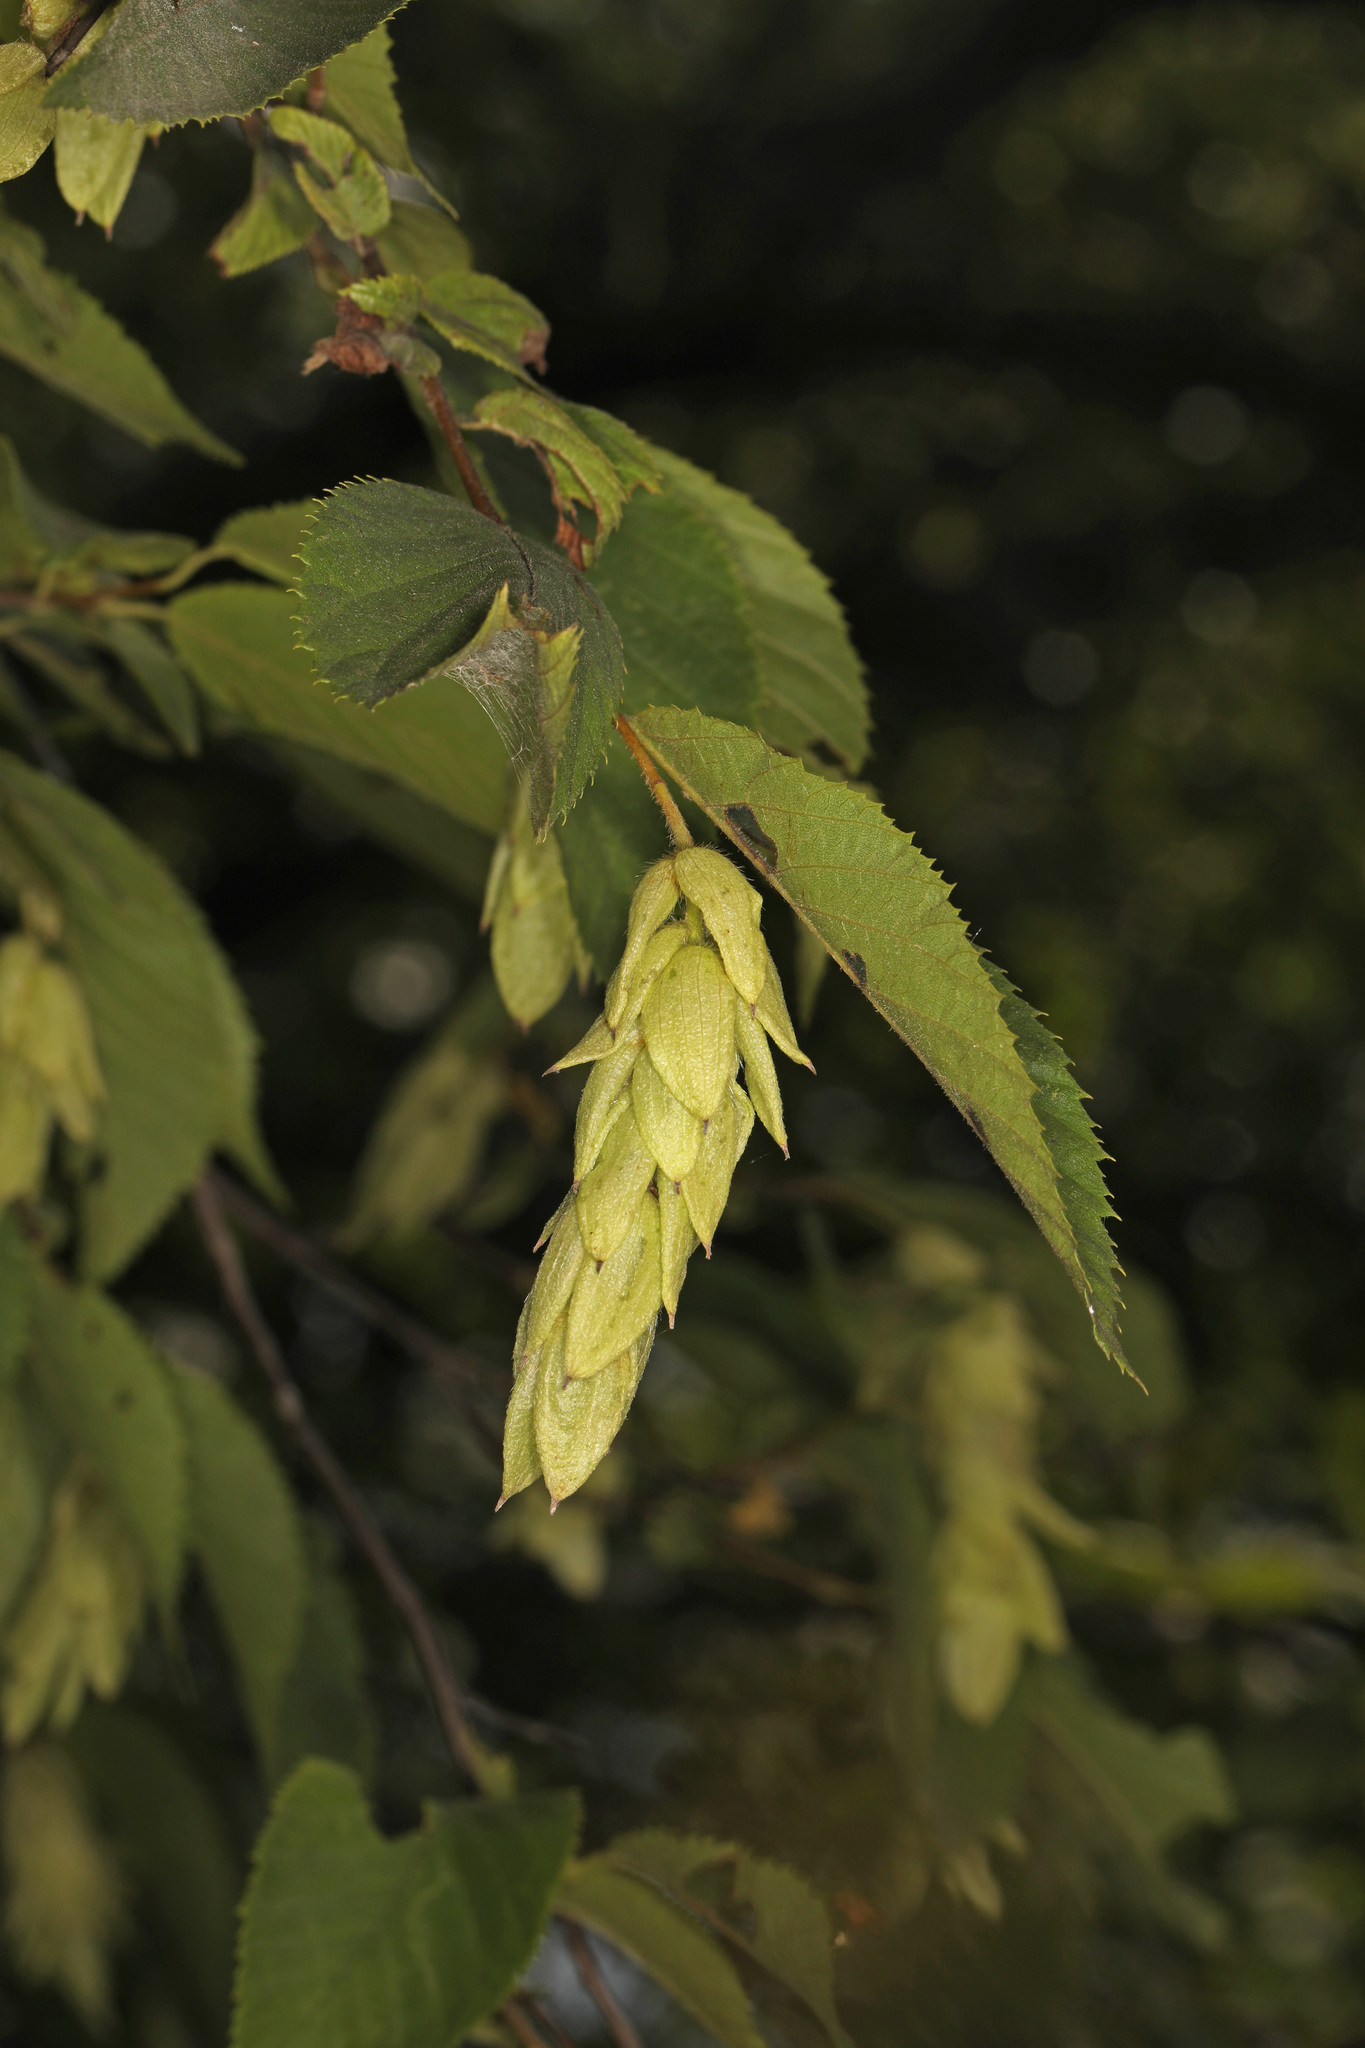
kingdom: Plantae
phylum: Tracheophyta
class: Magnoliopsida
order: Fagales
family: Betulaceae
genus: Ostrya
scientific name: Ostrya virginiana
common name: Ironwood
